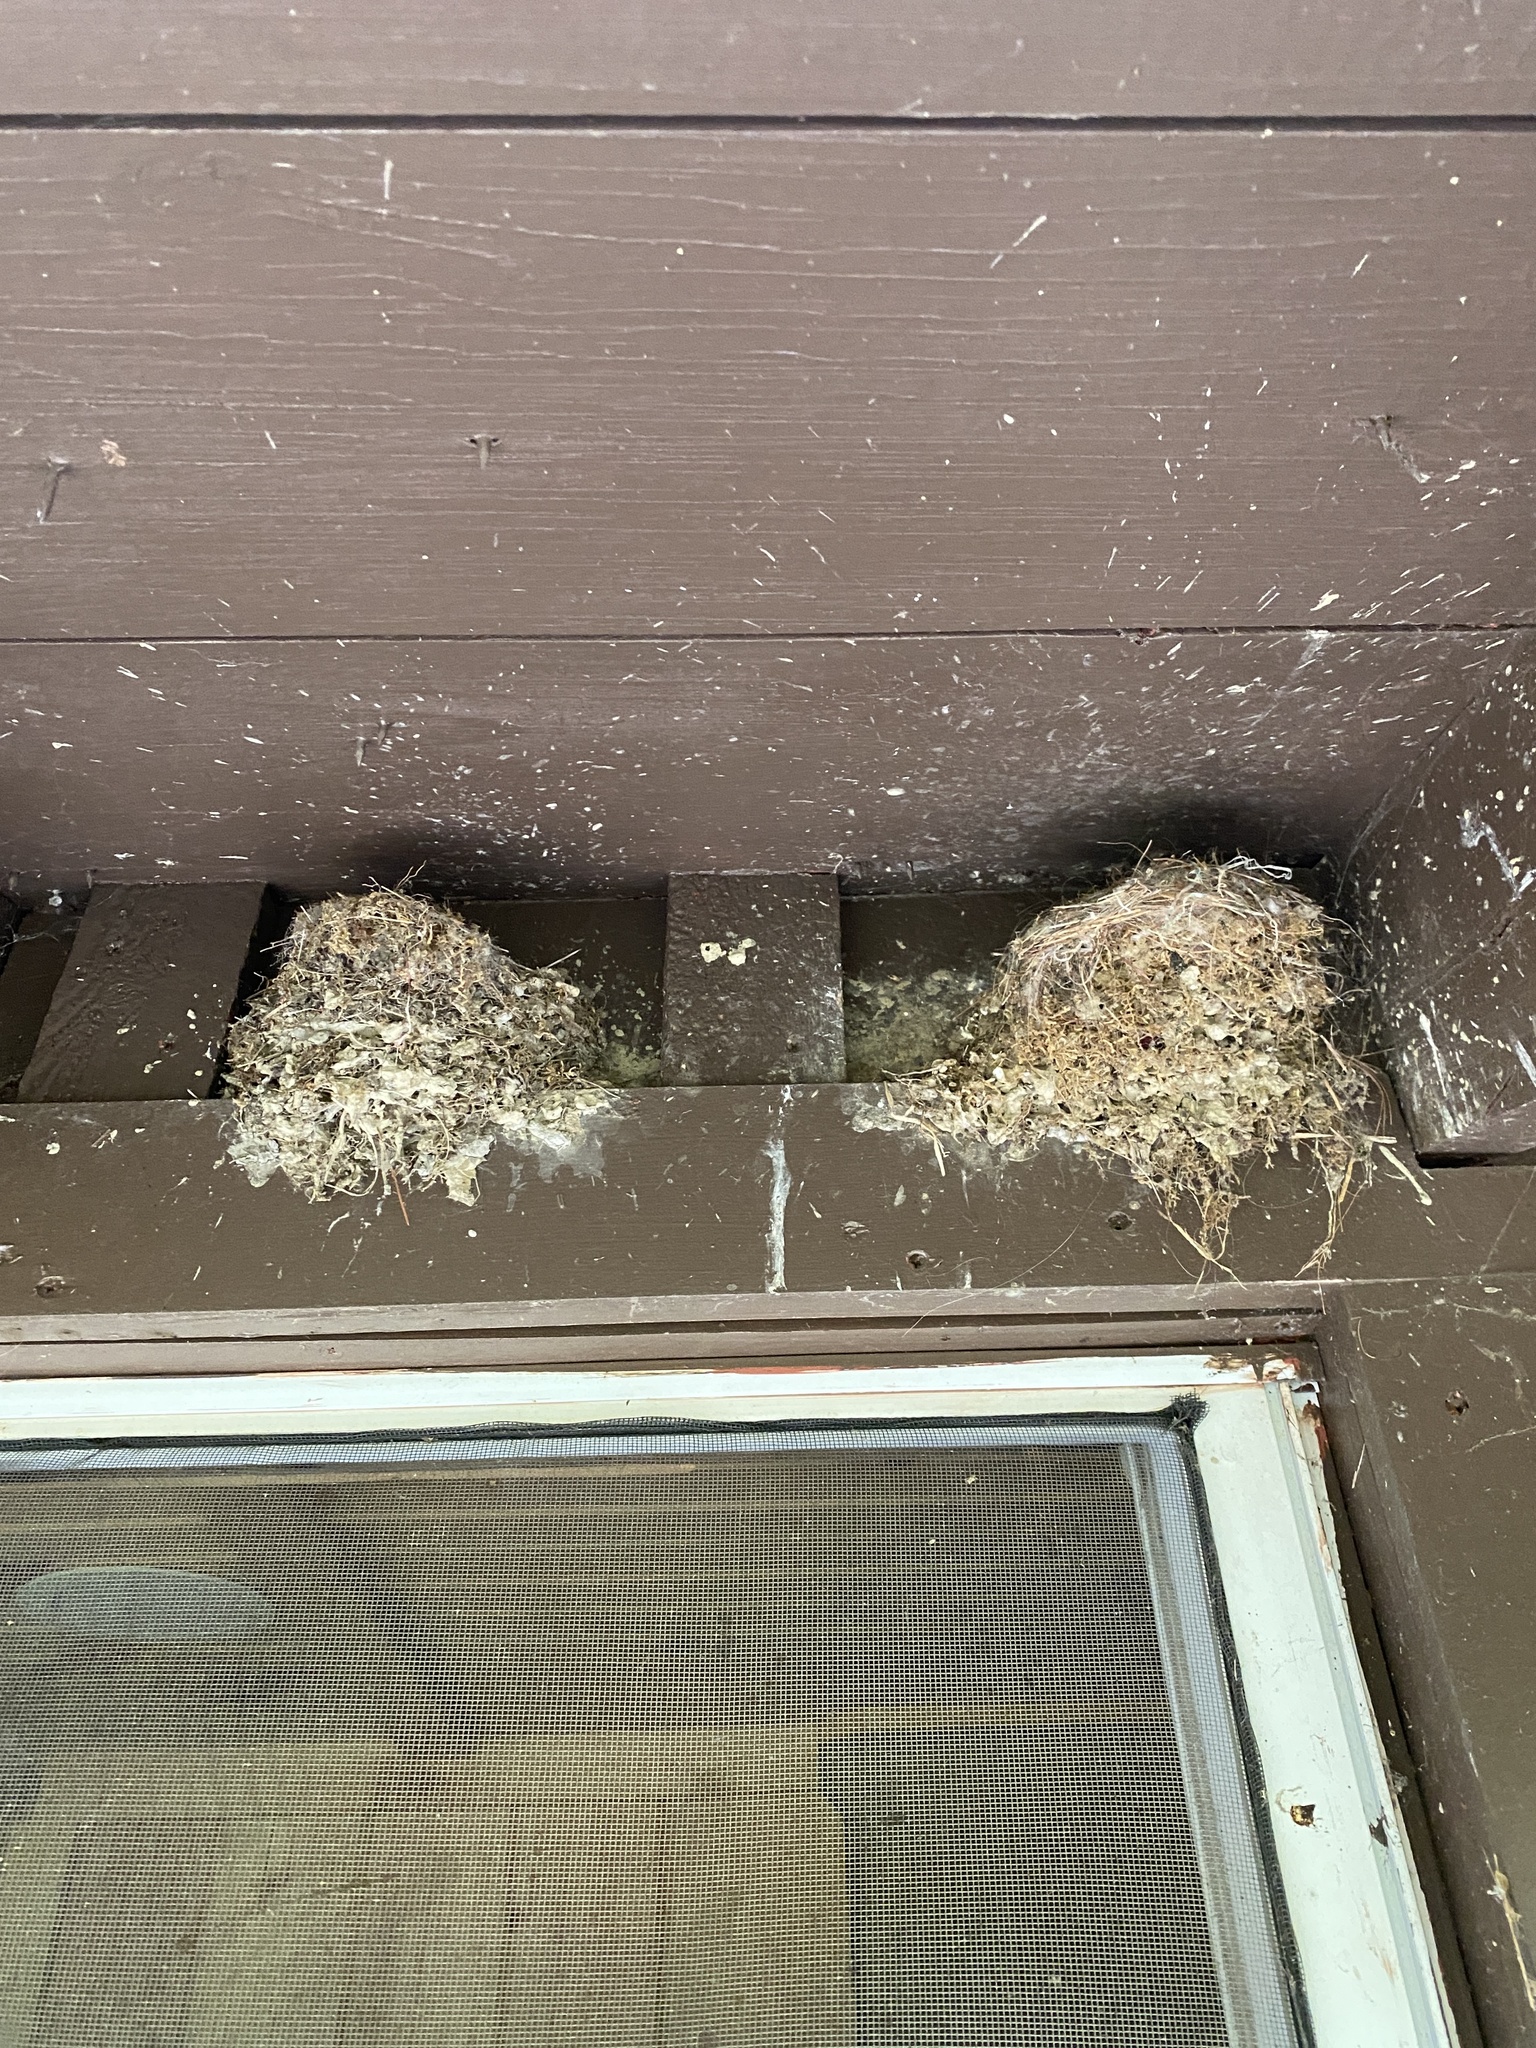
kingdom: Animalia
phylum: Chordata
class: Aves
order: Passeriformes
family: Tyrannidae
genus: Sayornis
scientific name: Sayornis phoebe
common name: Eastern phoebe
